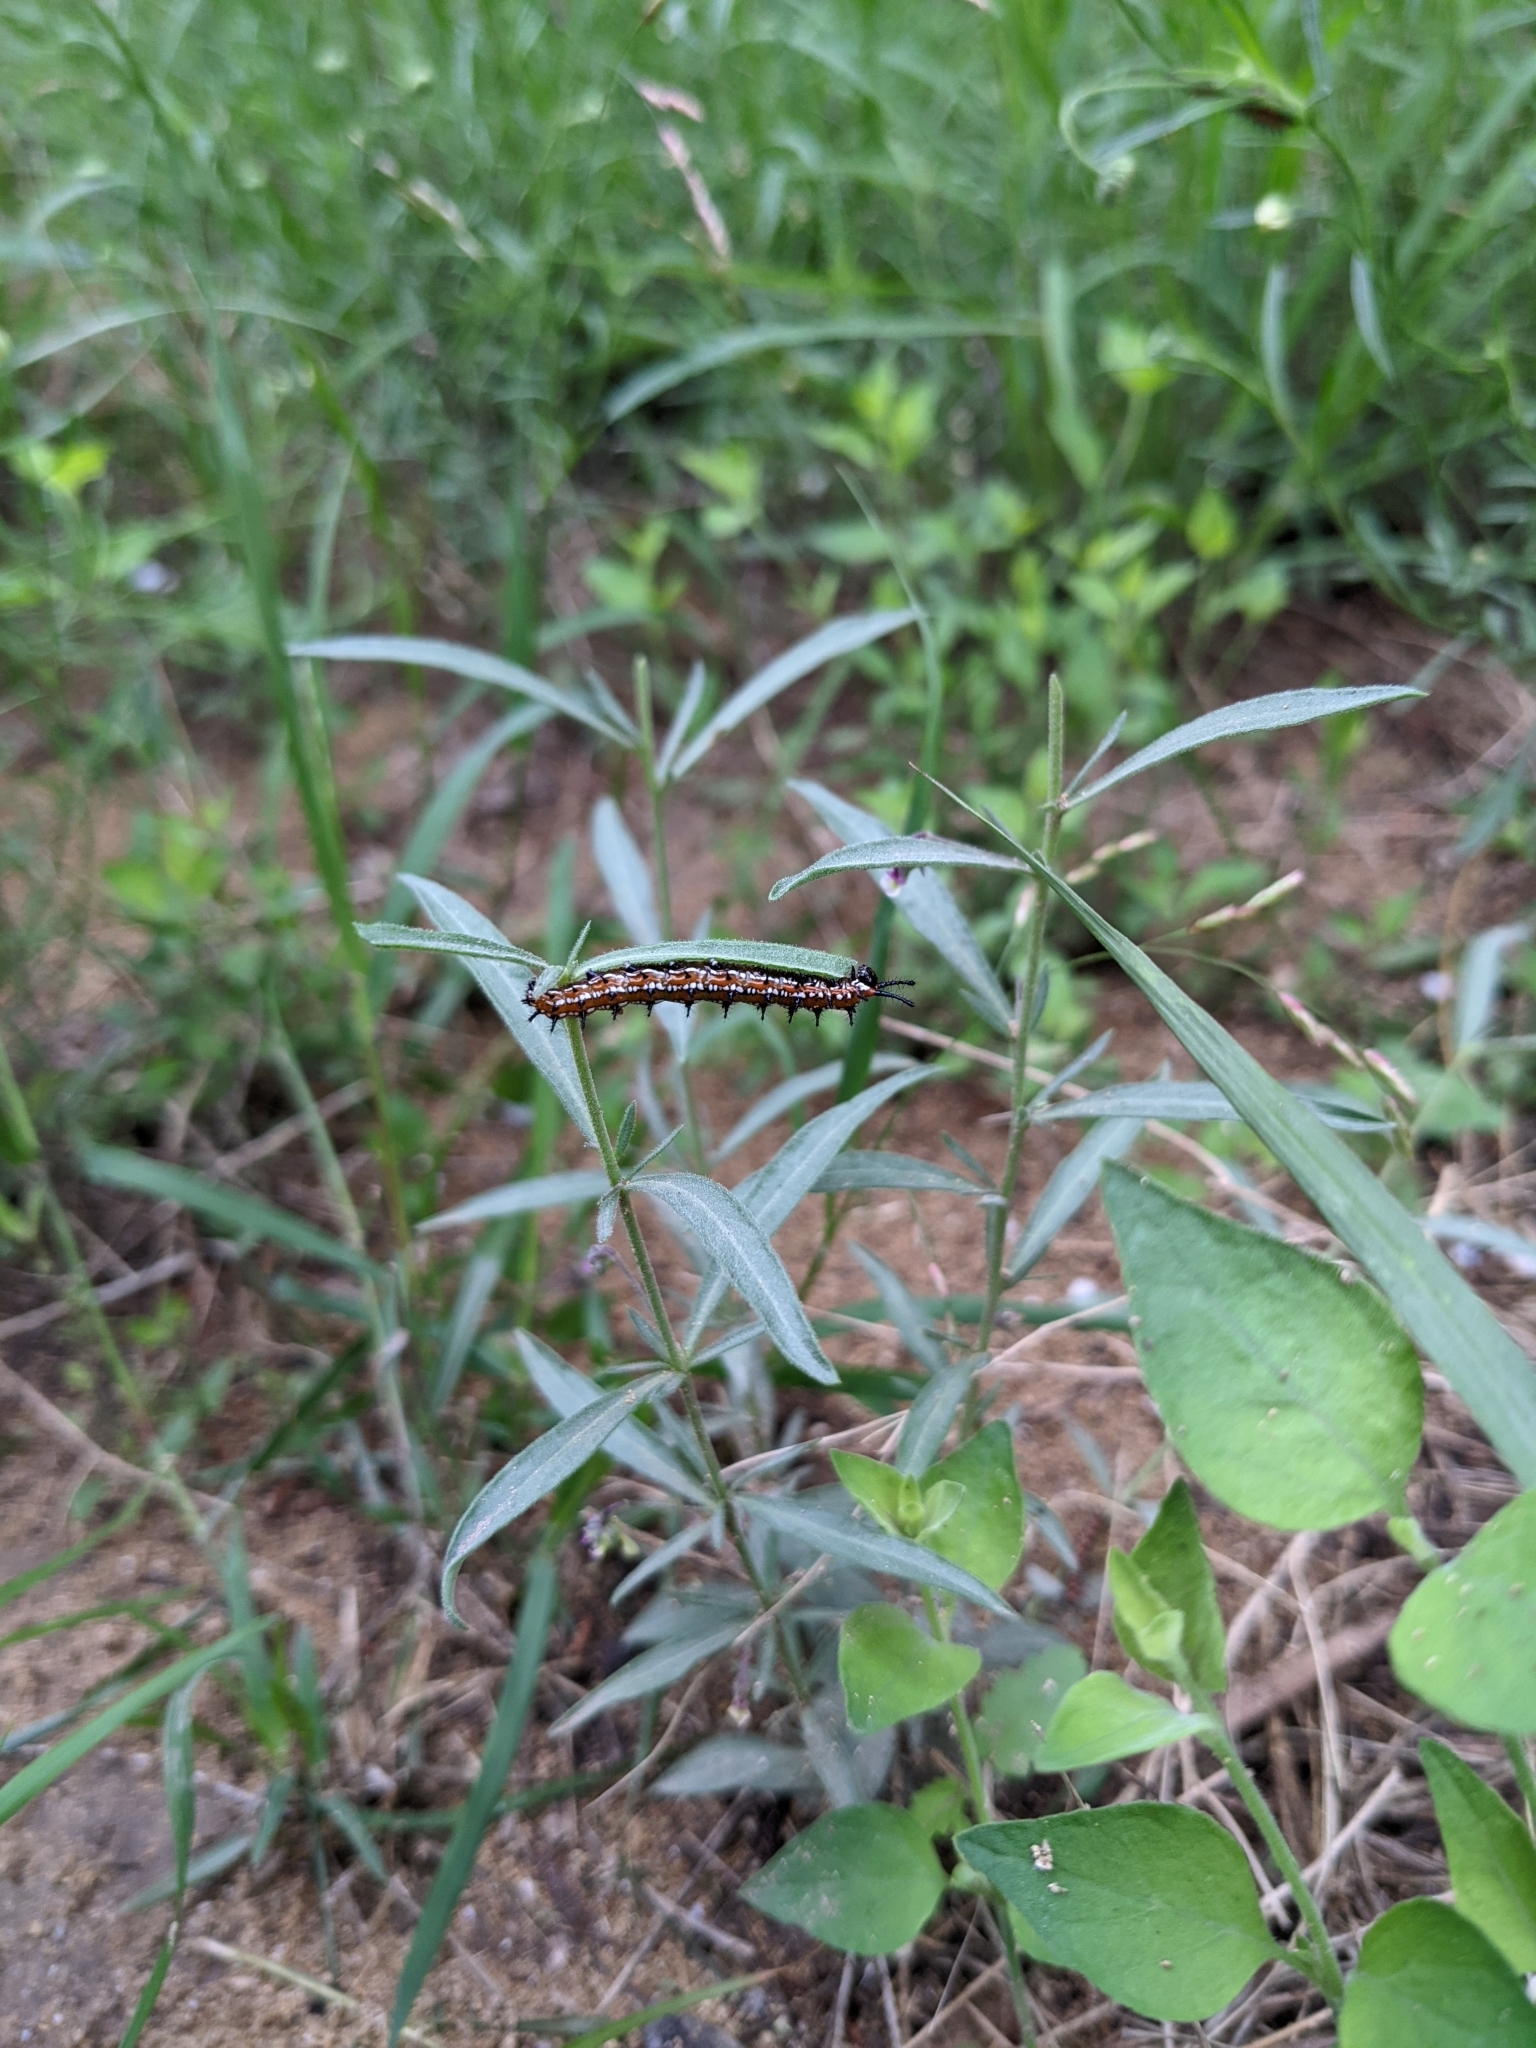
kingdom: Animalia
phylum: Arthropoda
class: Insecta
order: Lepidoptera
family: Nymphalidae
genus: Euptoieta
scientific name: Euptoieta claudia
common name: Variegated fritillary
